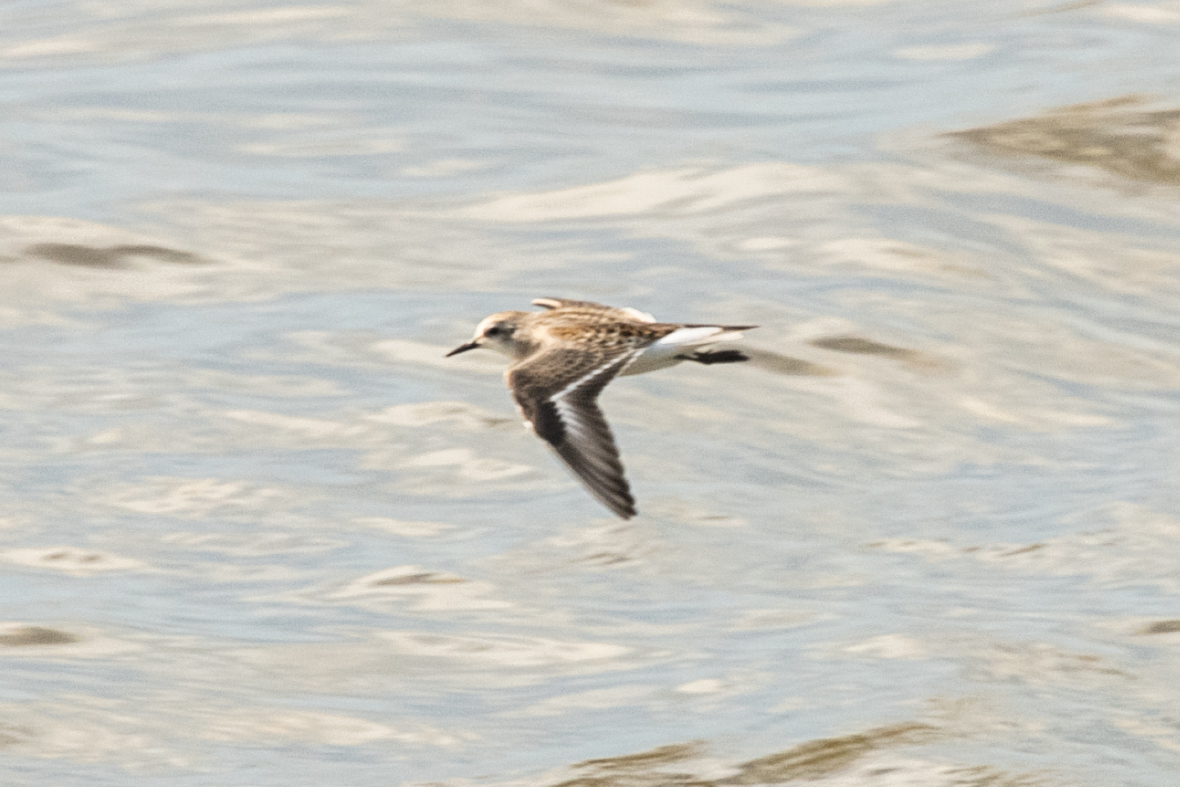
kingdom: Animalia
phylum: Chordata
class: Aves
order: Charadriiformes
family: Scolopacidae
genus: Calidris
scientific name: Calidris ruficollis
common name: Red-necked stint
